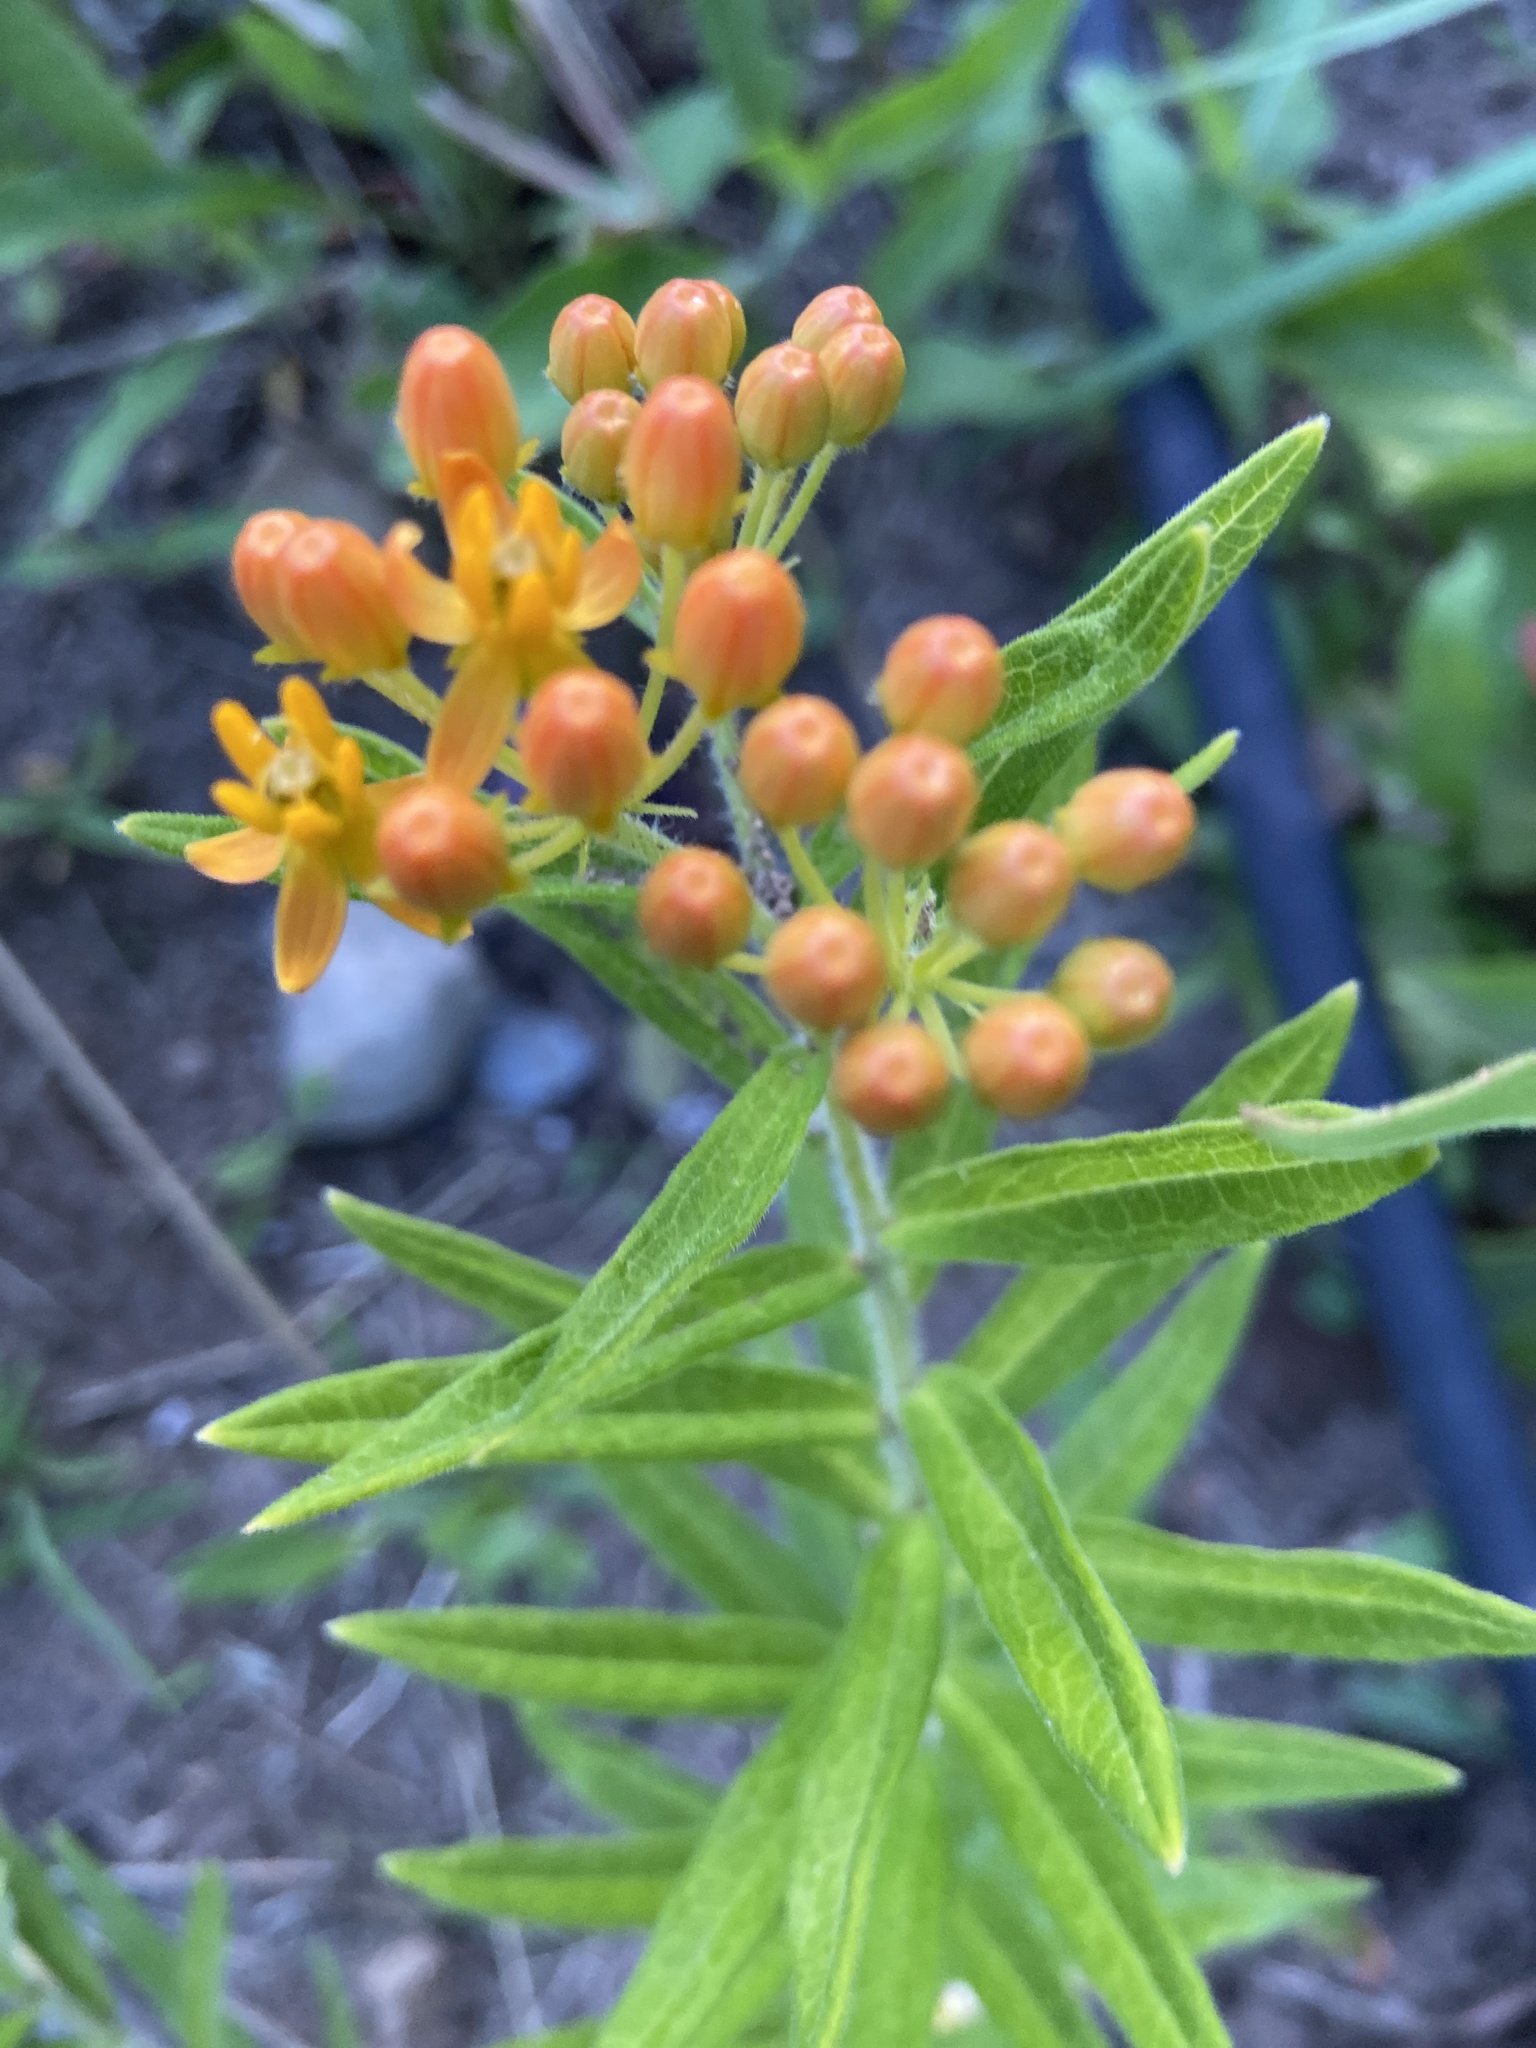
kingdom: Plantae
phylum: Tracheophyta
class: Magnoliopsida
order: Gentianales
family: Apocynaceae
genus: Asclepias
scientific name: Asclepias tuberosa
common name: Butterfly milkweed
